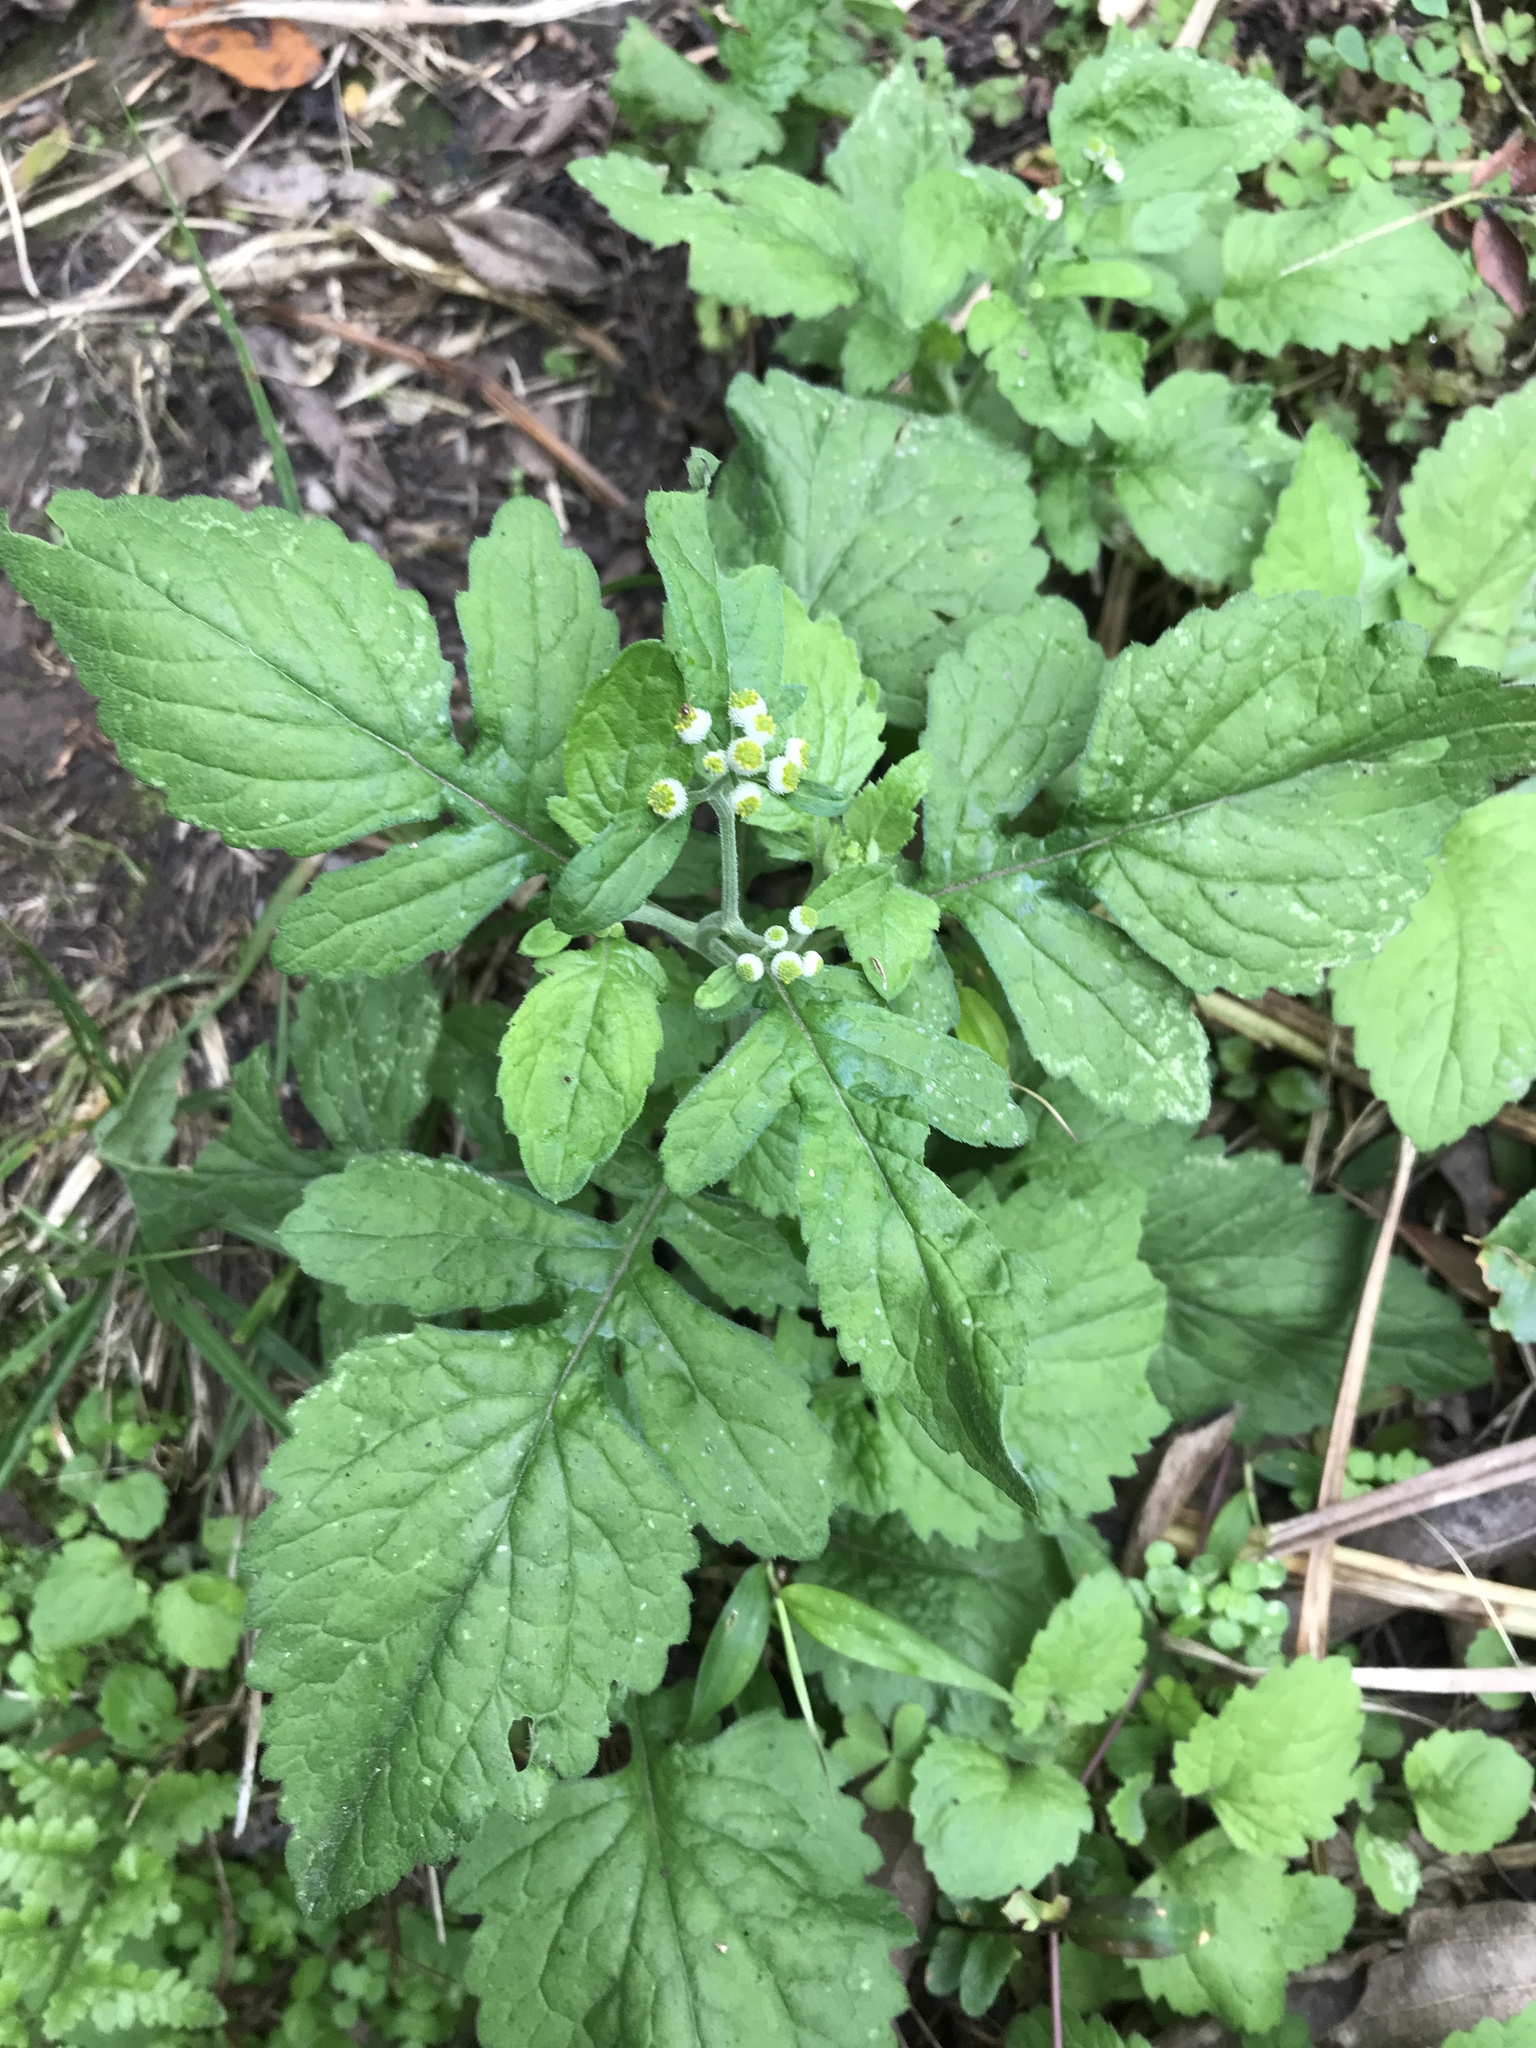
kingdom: Plantae
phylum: Tracheophyta
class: Magnoliopsida
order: Asterales
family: Asteraceae
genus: Dichrocephala
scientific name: Dichrocephala integrifolia
